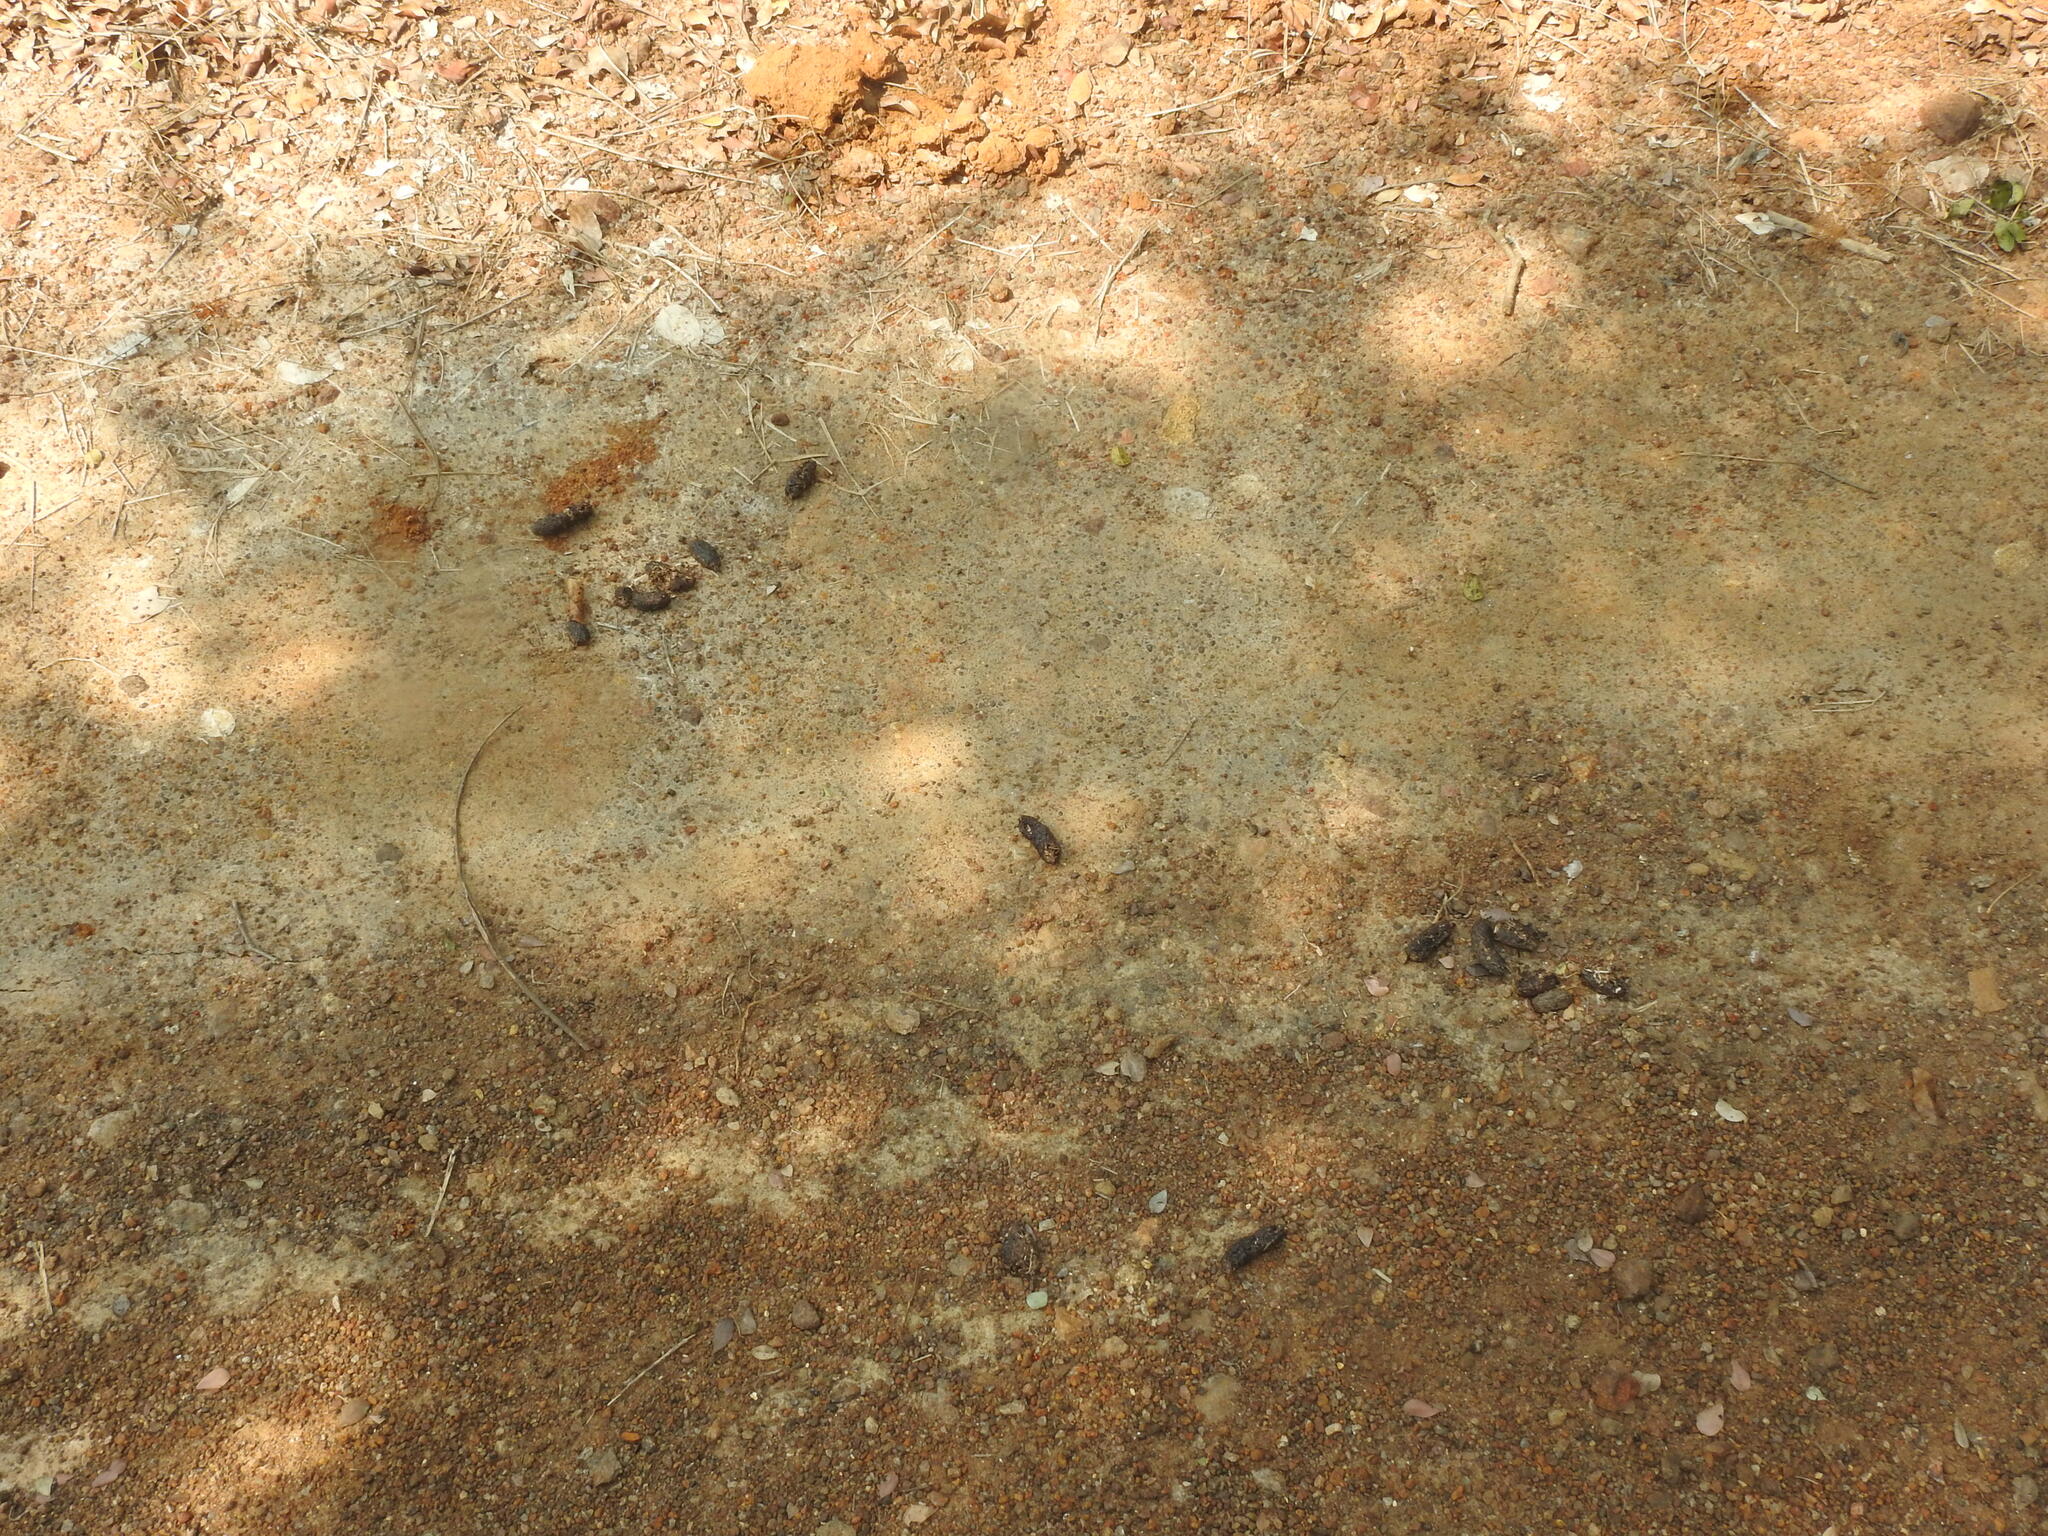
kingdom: Animalia
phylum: Chordata
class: Mammalia
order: Rodentia
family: Hystricidae
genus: Hystrix
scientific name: Hystrix indica
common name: Indian crested porcupine
